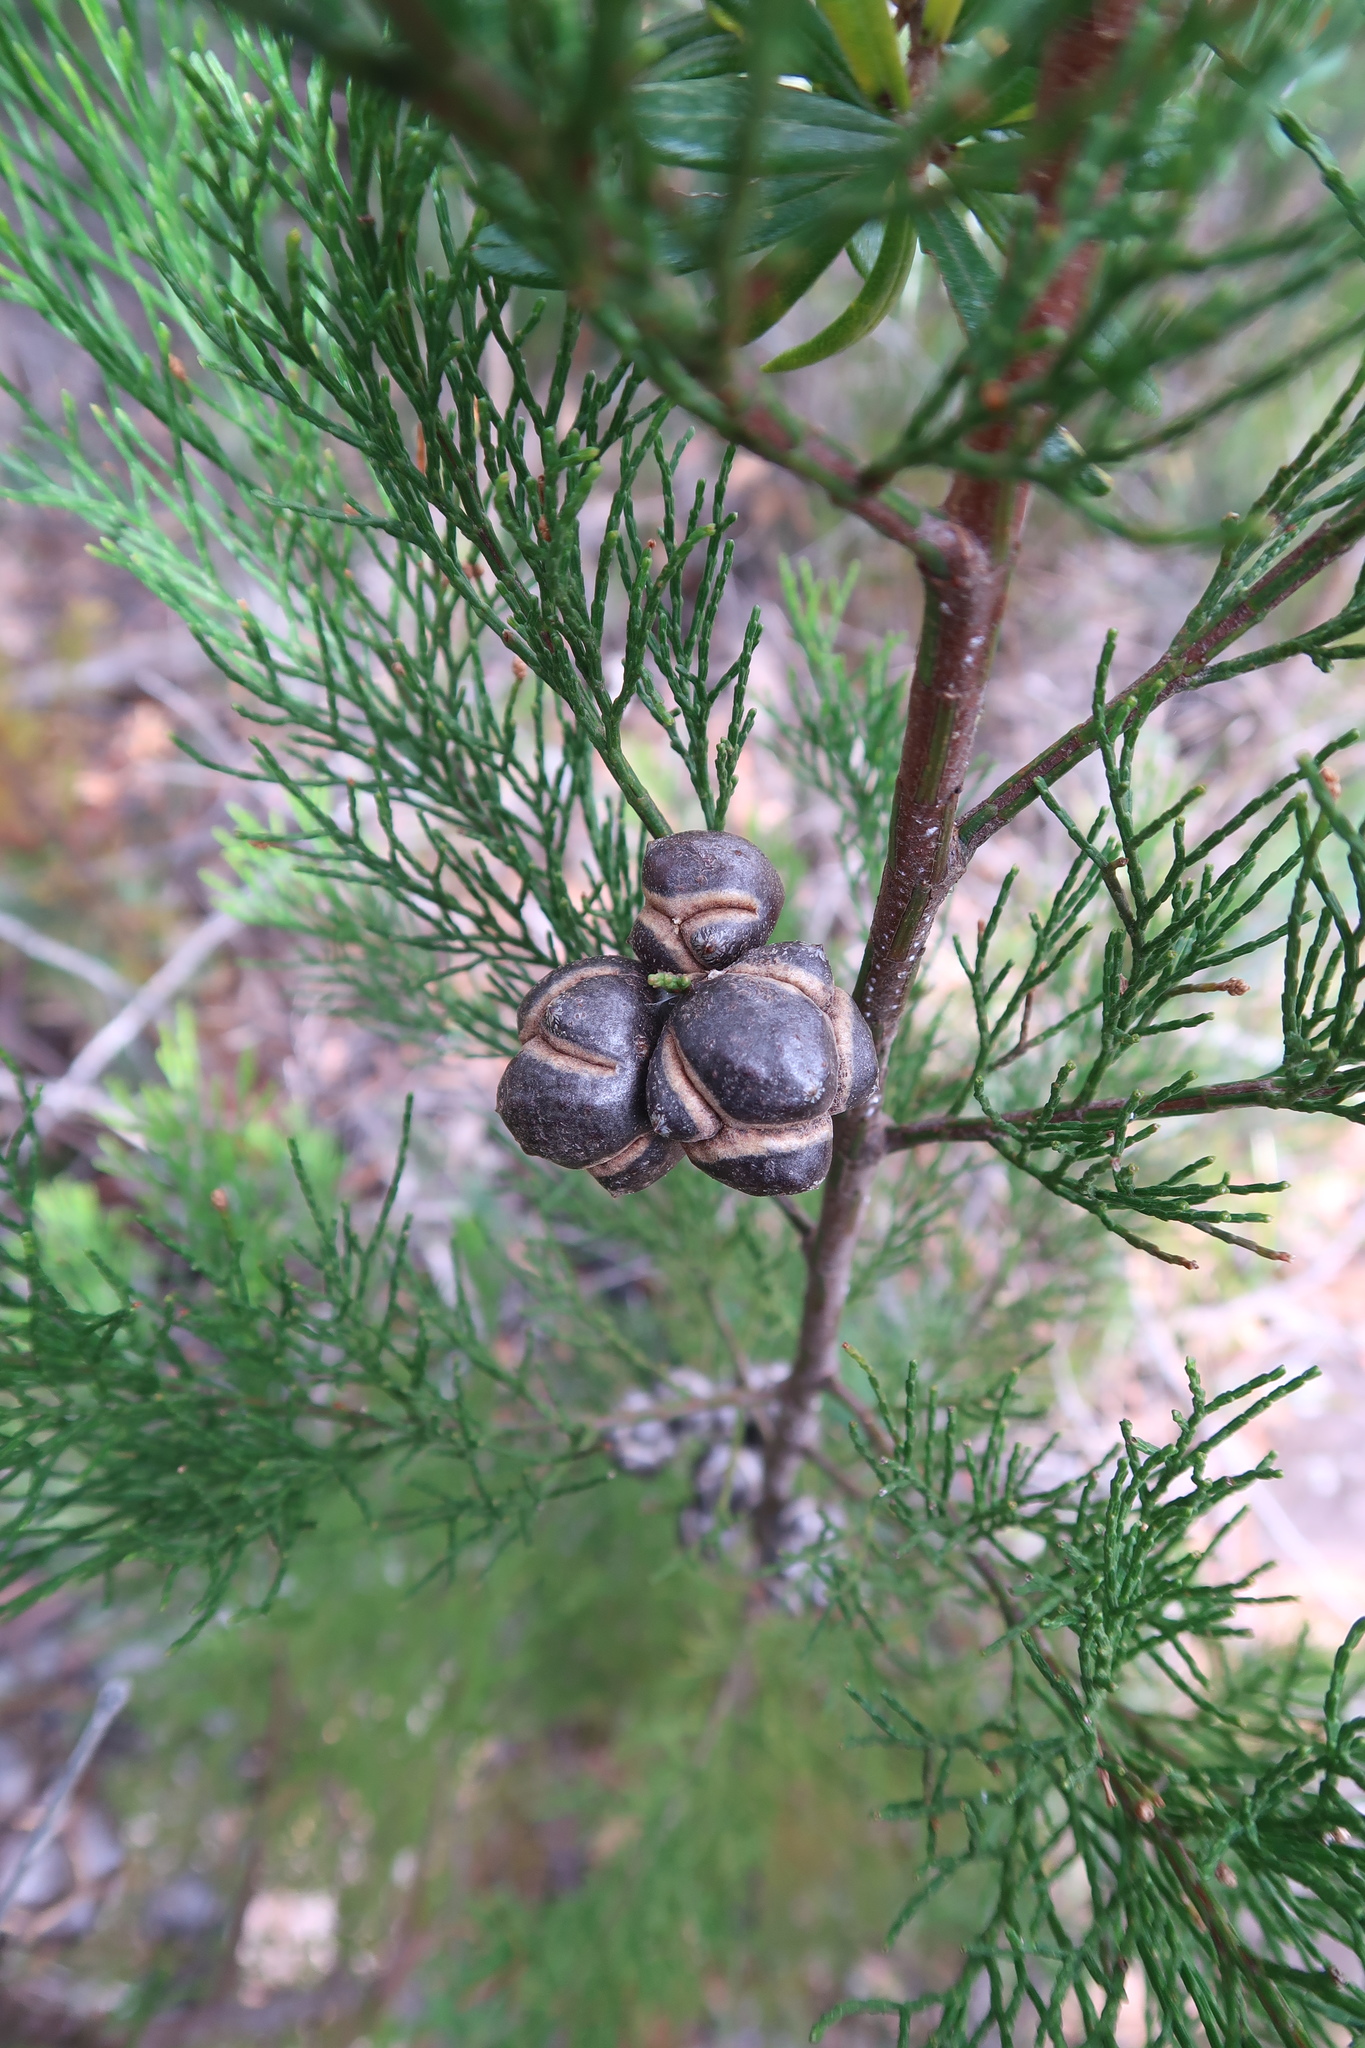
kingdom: Plantae
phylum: Tracheophyta
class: Pinopsida
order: Pinales
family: Cupressaceae
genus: Callitris
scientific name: Callitris rhomboidea
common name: Illawara mountain pine
